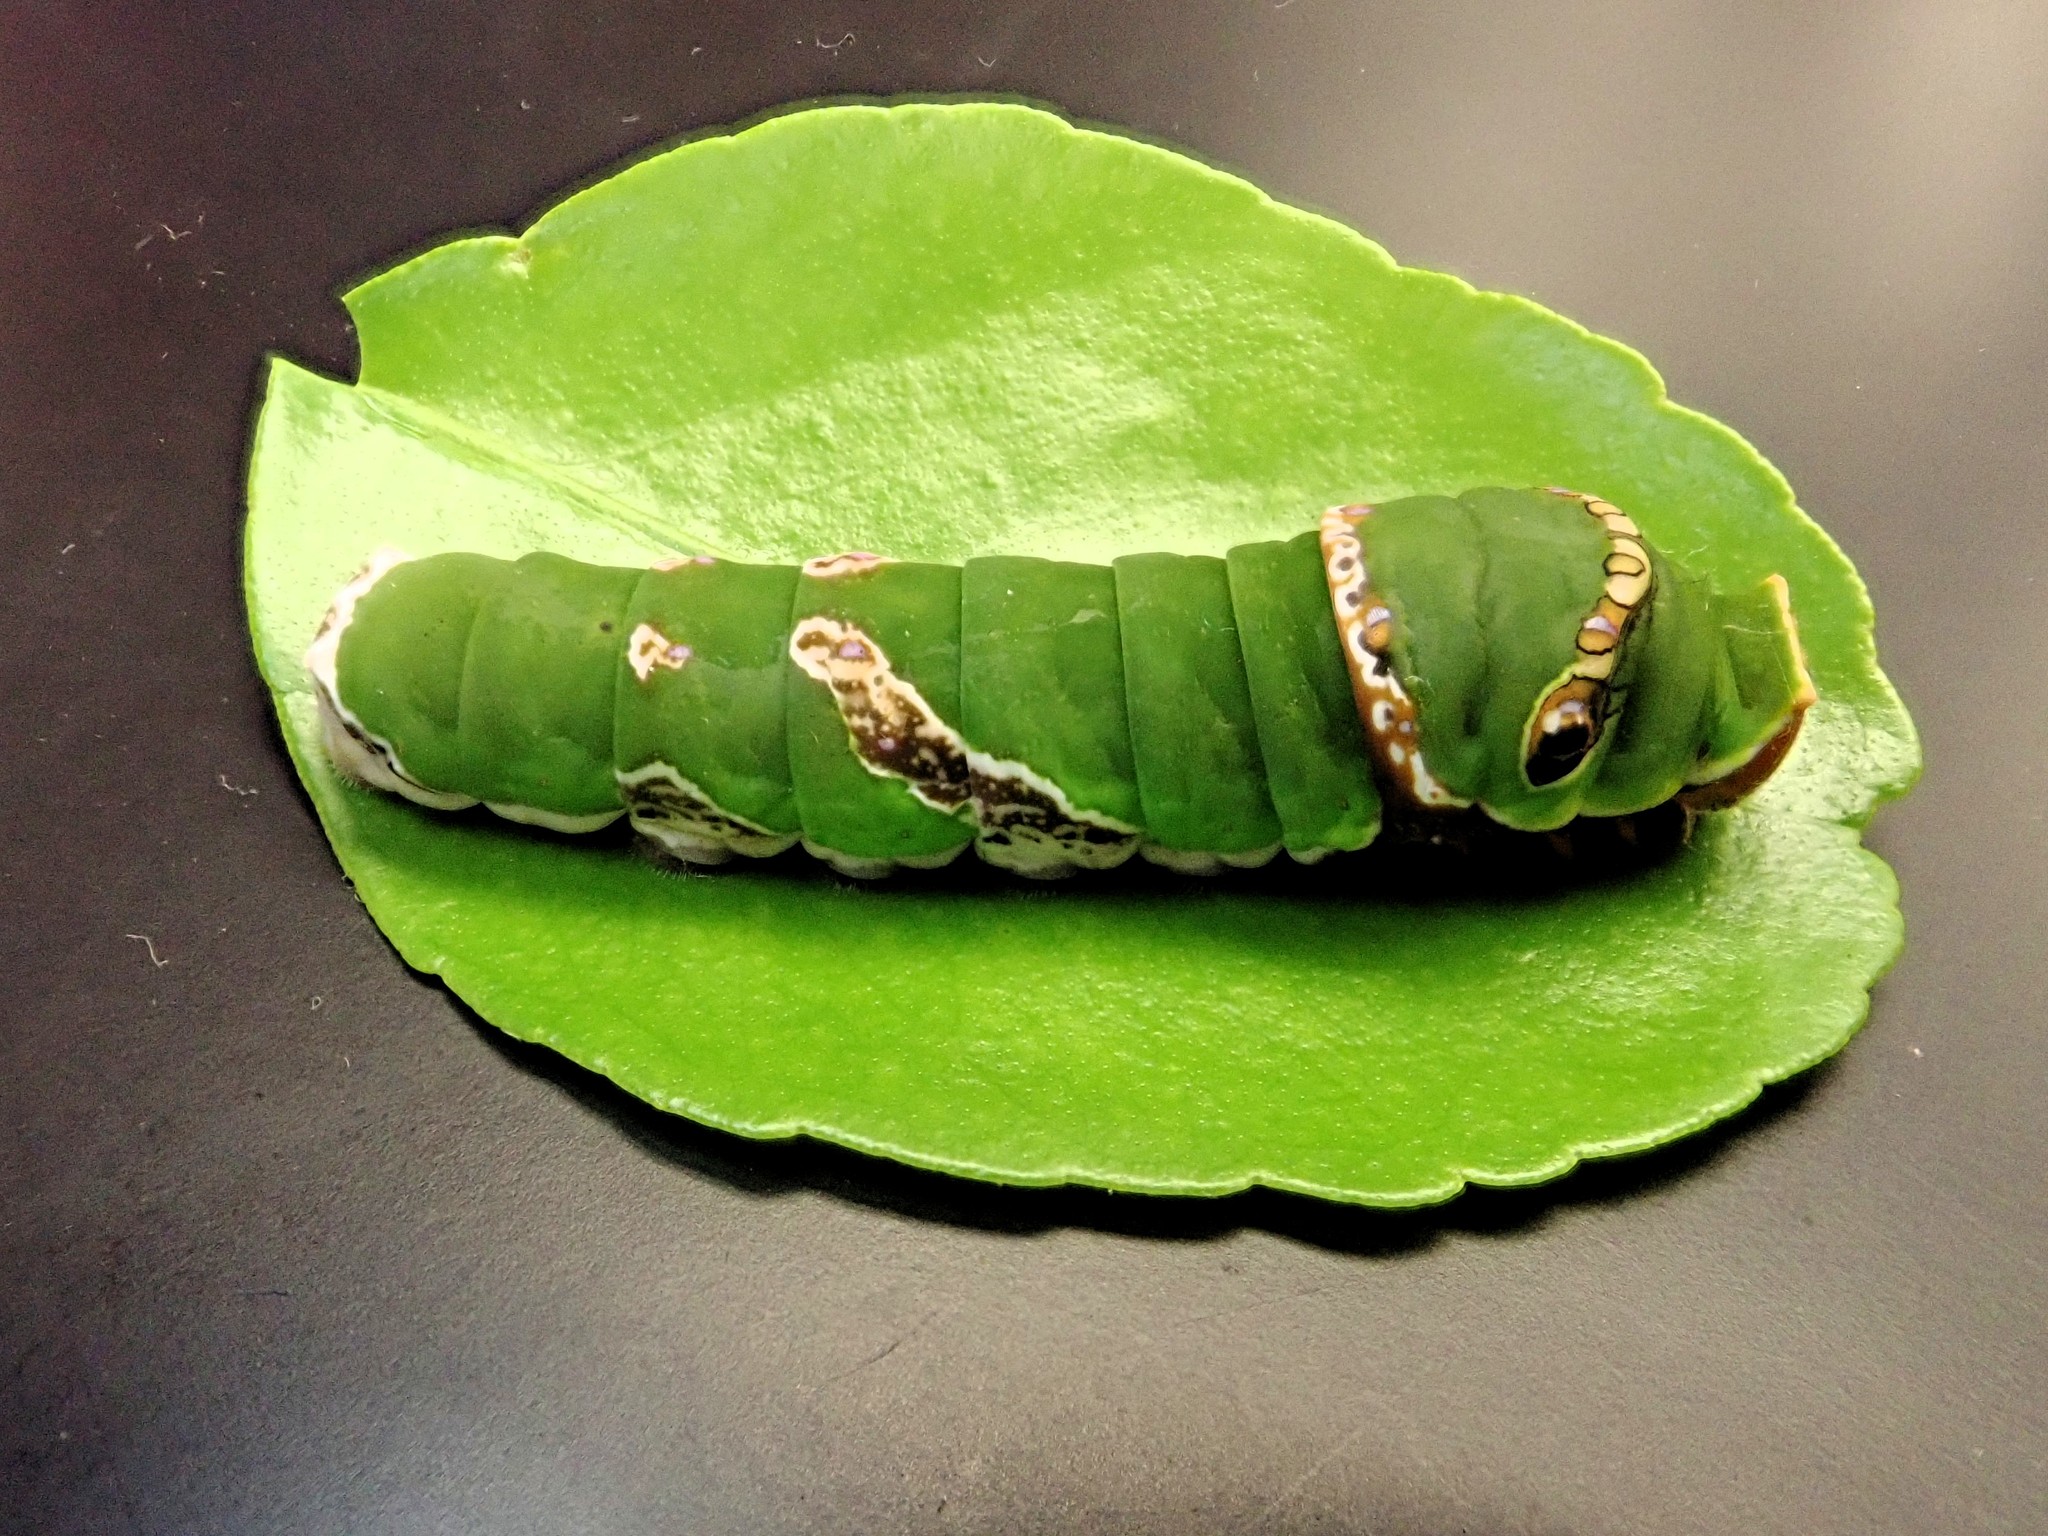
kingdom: Animalia
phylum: Arthropoda
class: Insecta
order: Lepidoptera
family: Papilionidae
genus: Papilio
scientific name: Papilio polytes
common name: Common mormon
